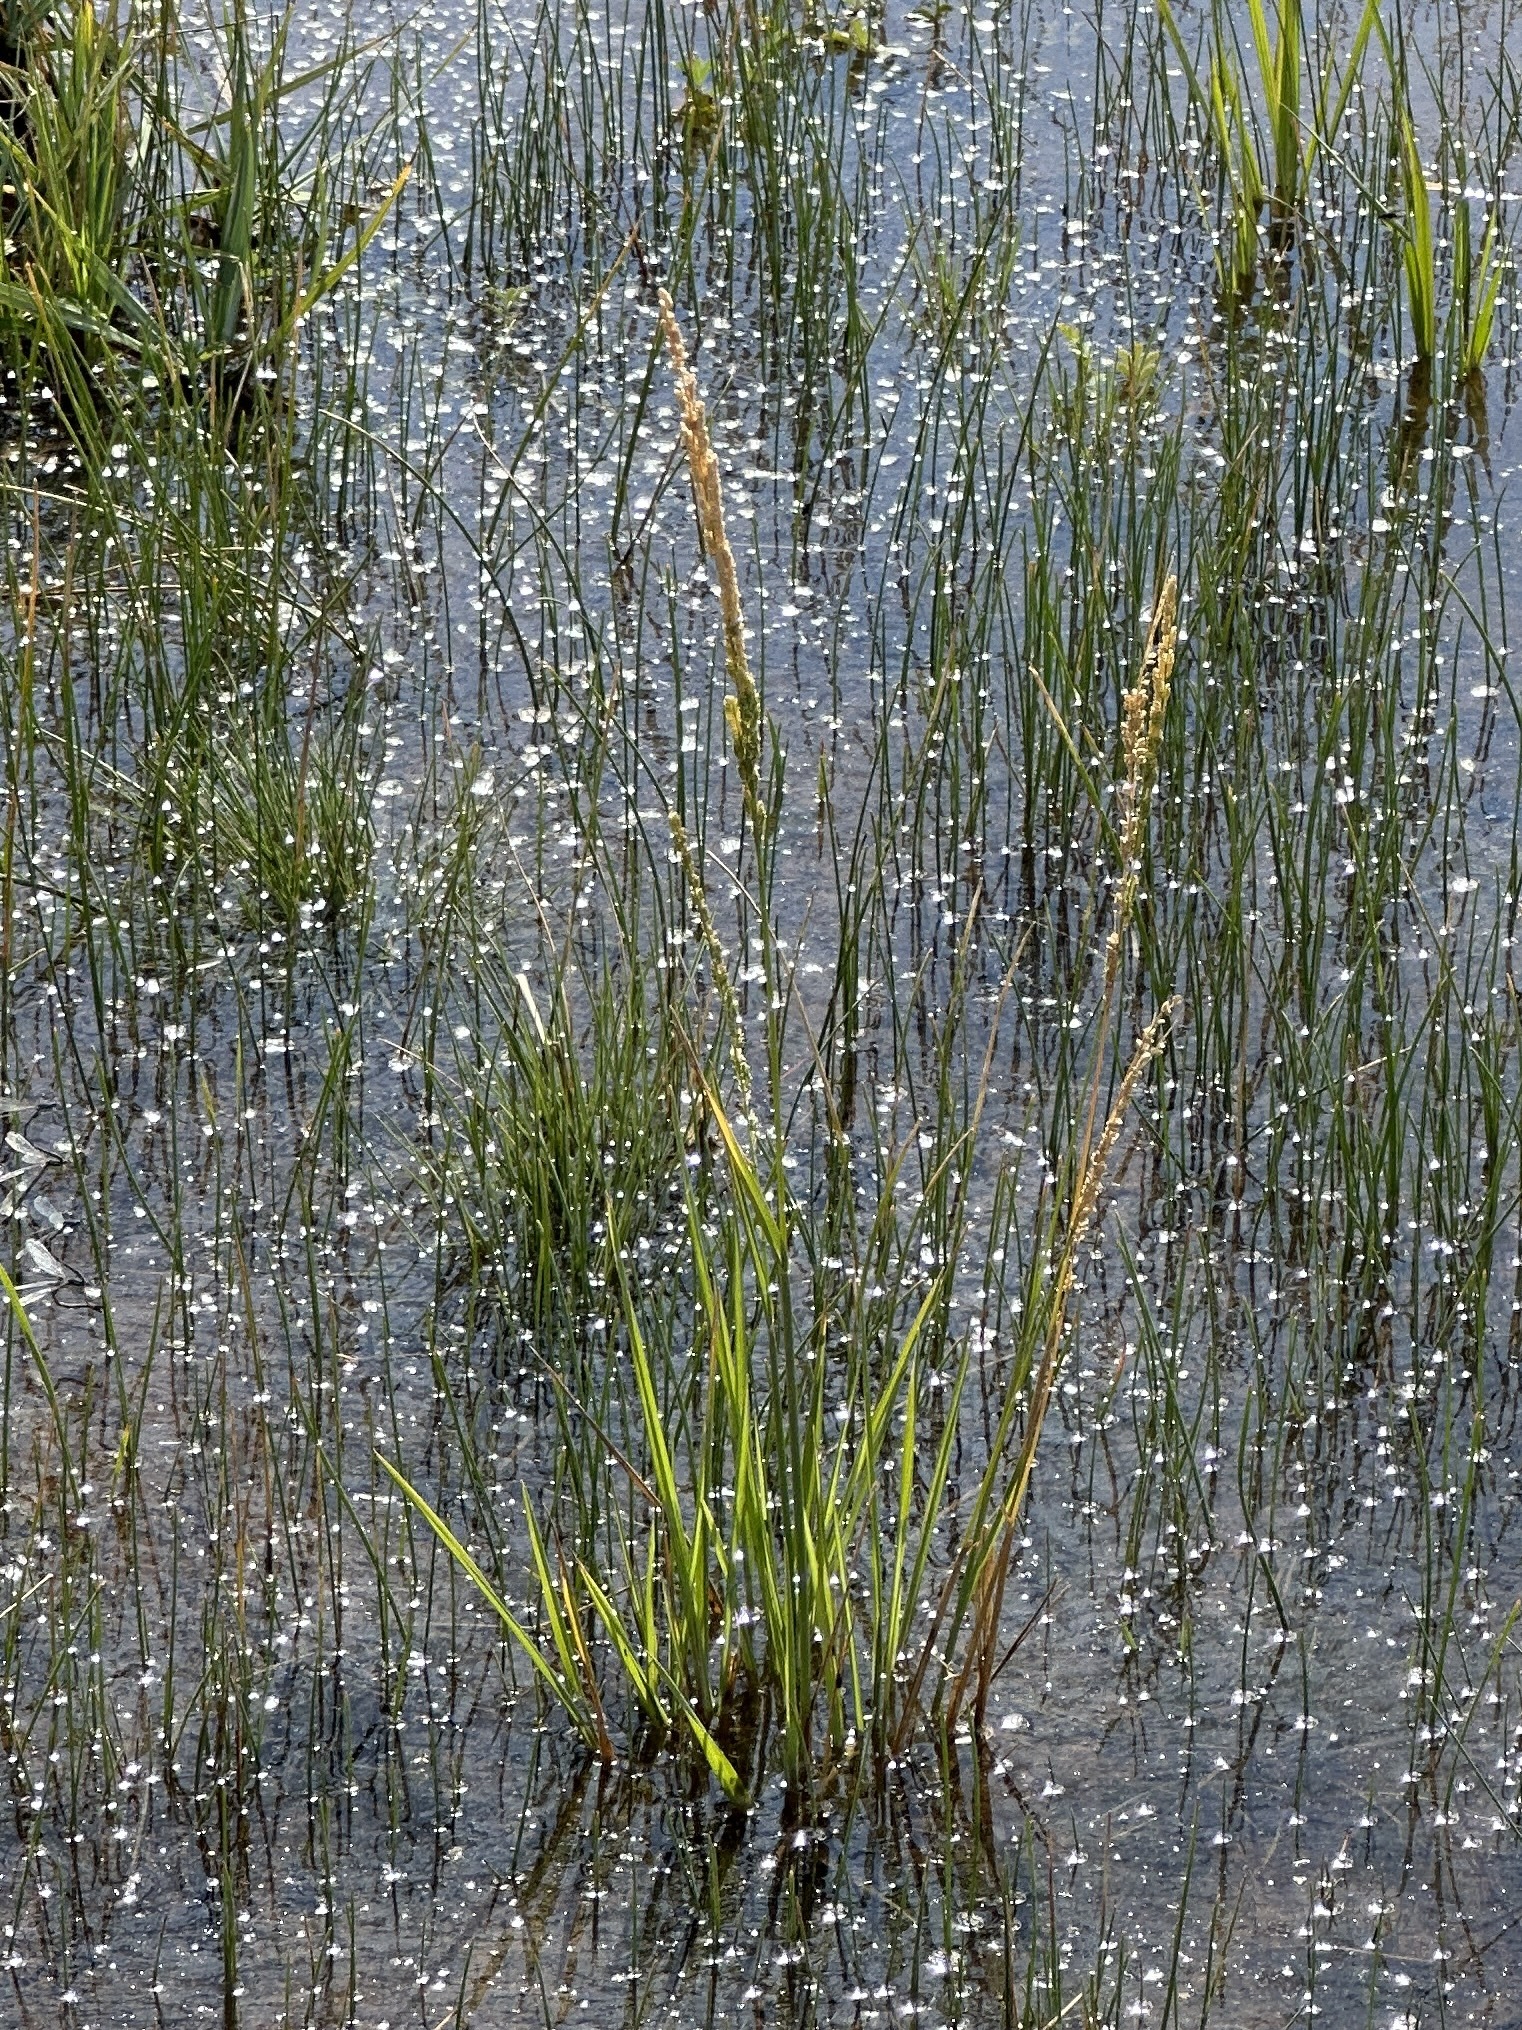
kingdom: Plantae
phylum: Tracheophyta
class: Liliopsida
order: Poales
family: Poaceae
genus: Beckmannia
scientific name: Beckmannia syzigachne
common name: American slough-grass
